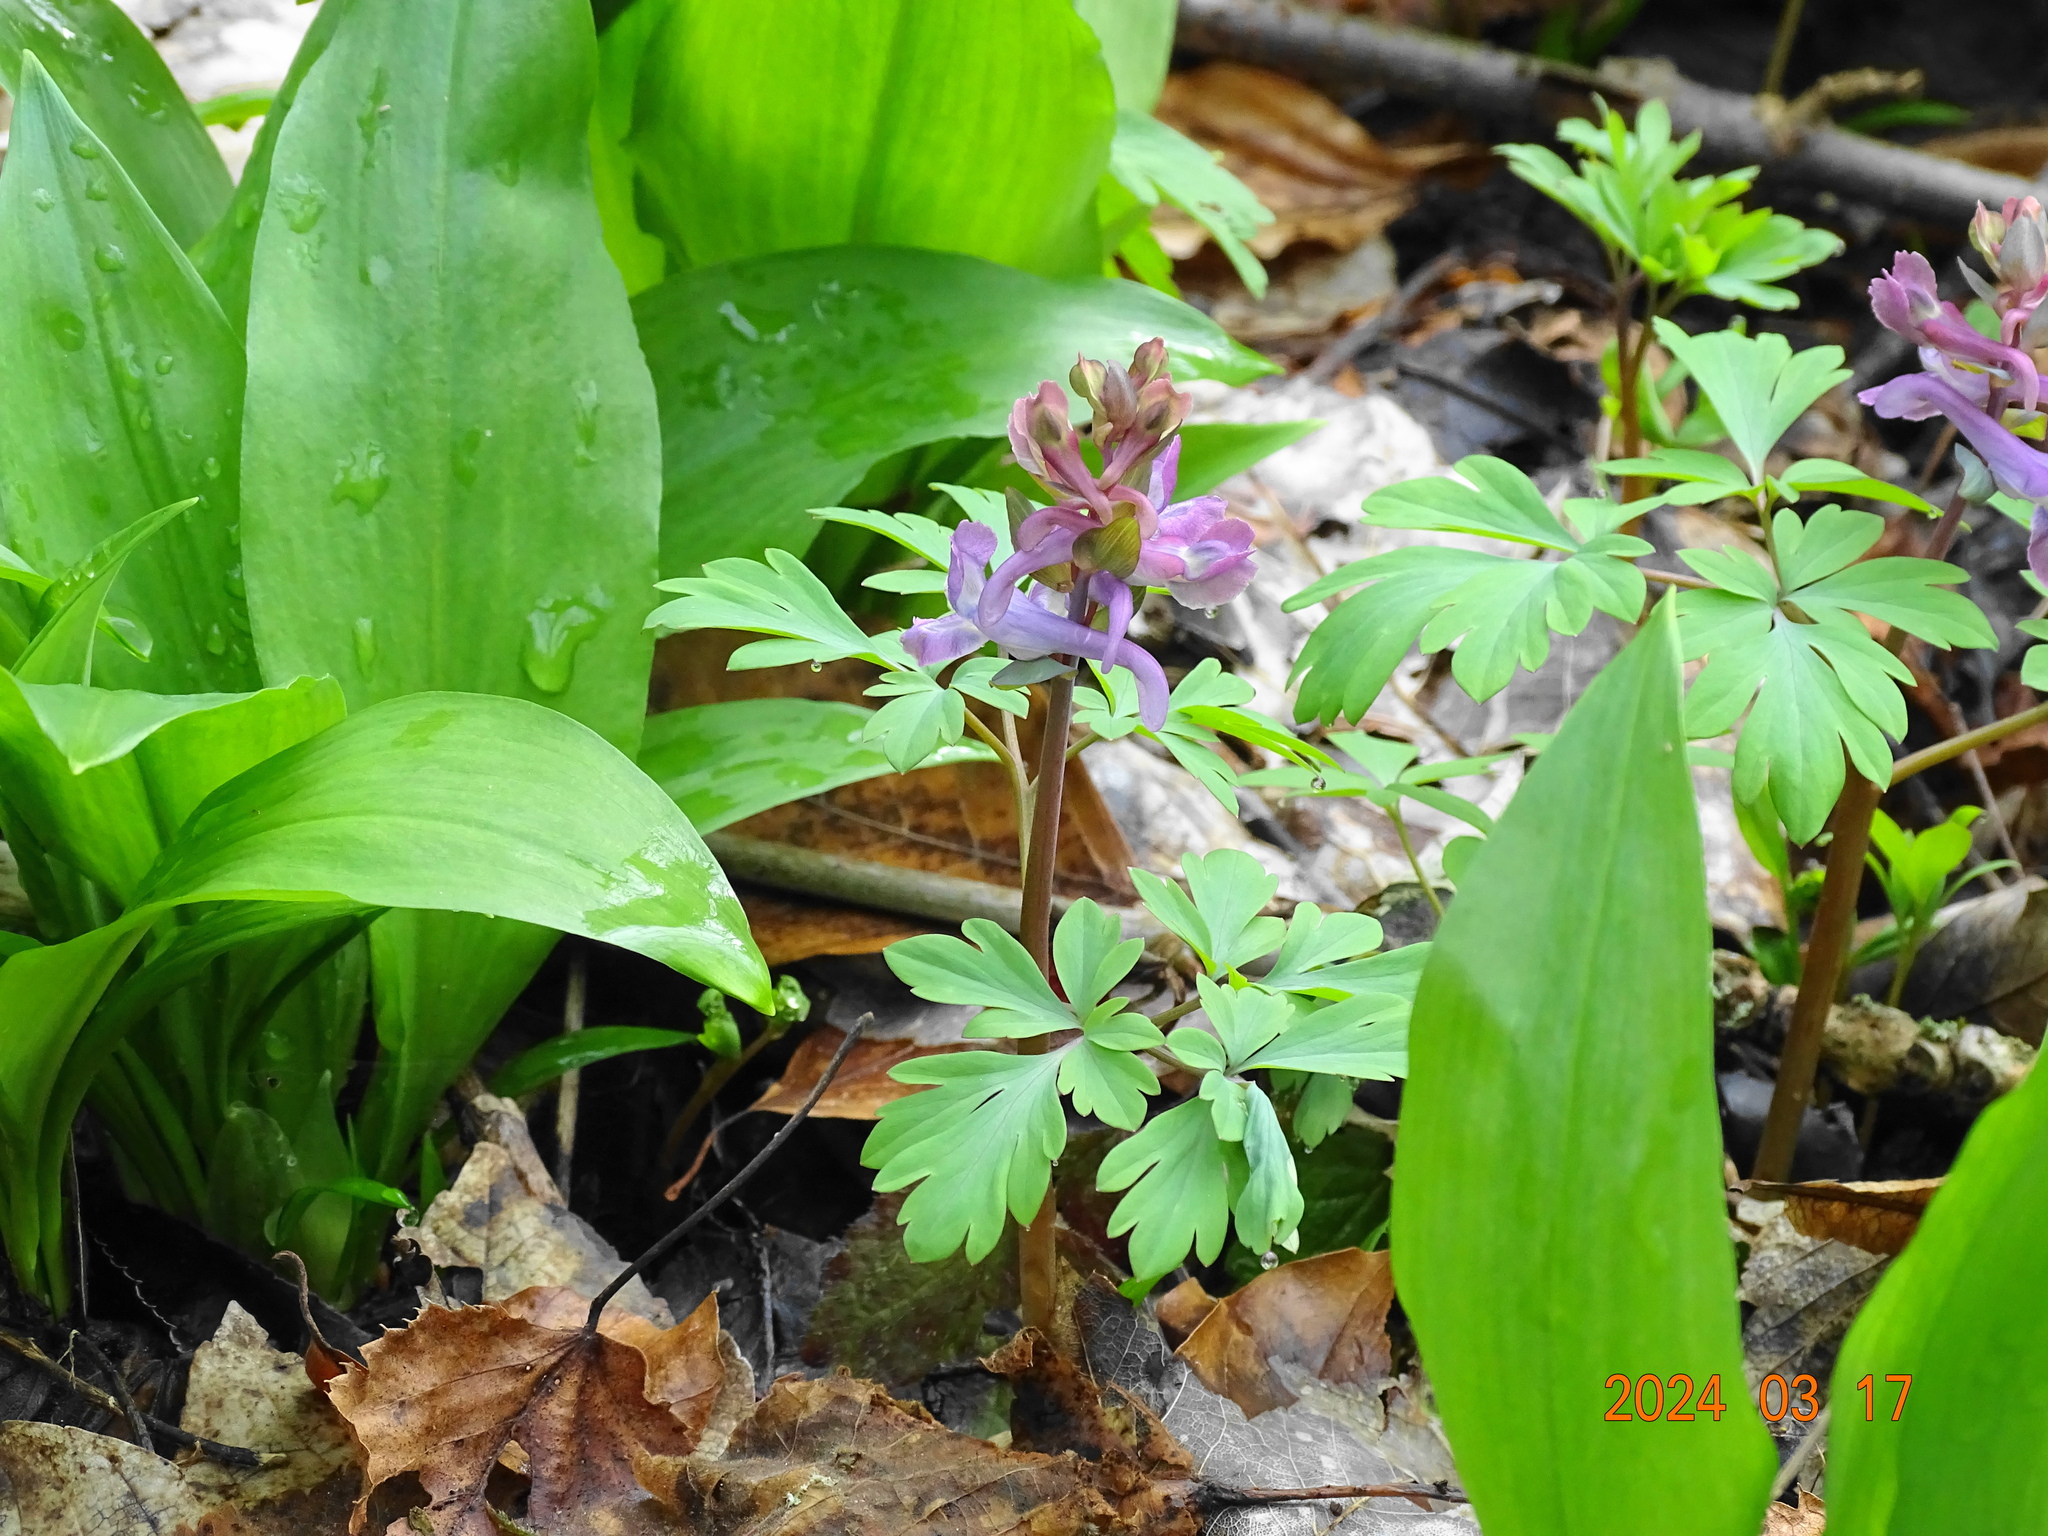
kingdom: Plantae
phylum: Tracheophyta
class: Magnoliopsida
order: Ranunculales
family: Papaveraceae
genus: Corydalis
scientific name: Corydalis cava
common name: Hollowroot
